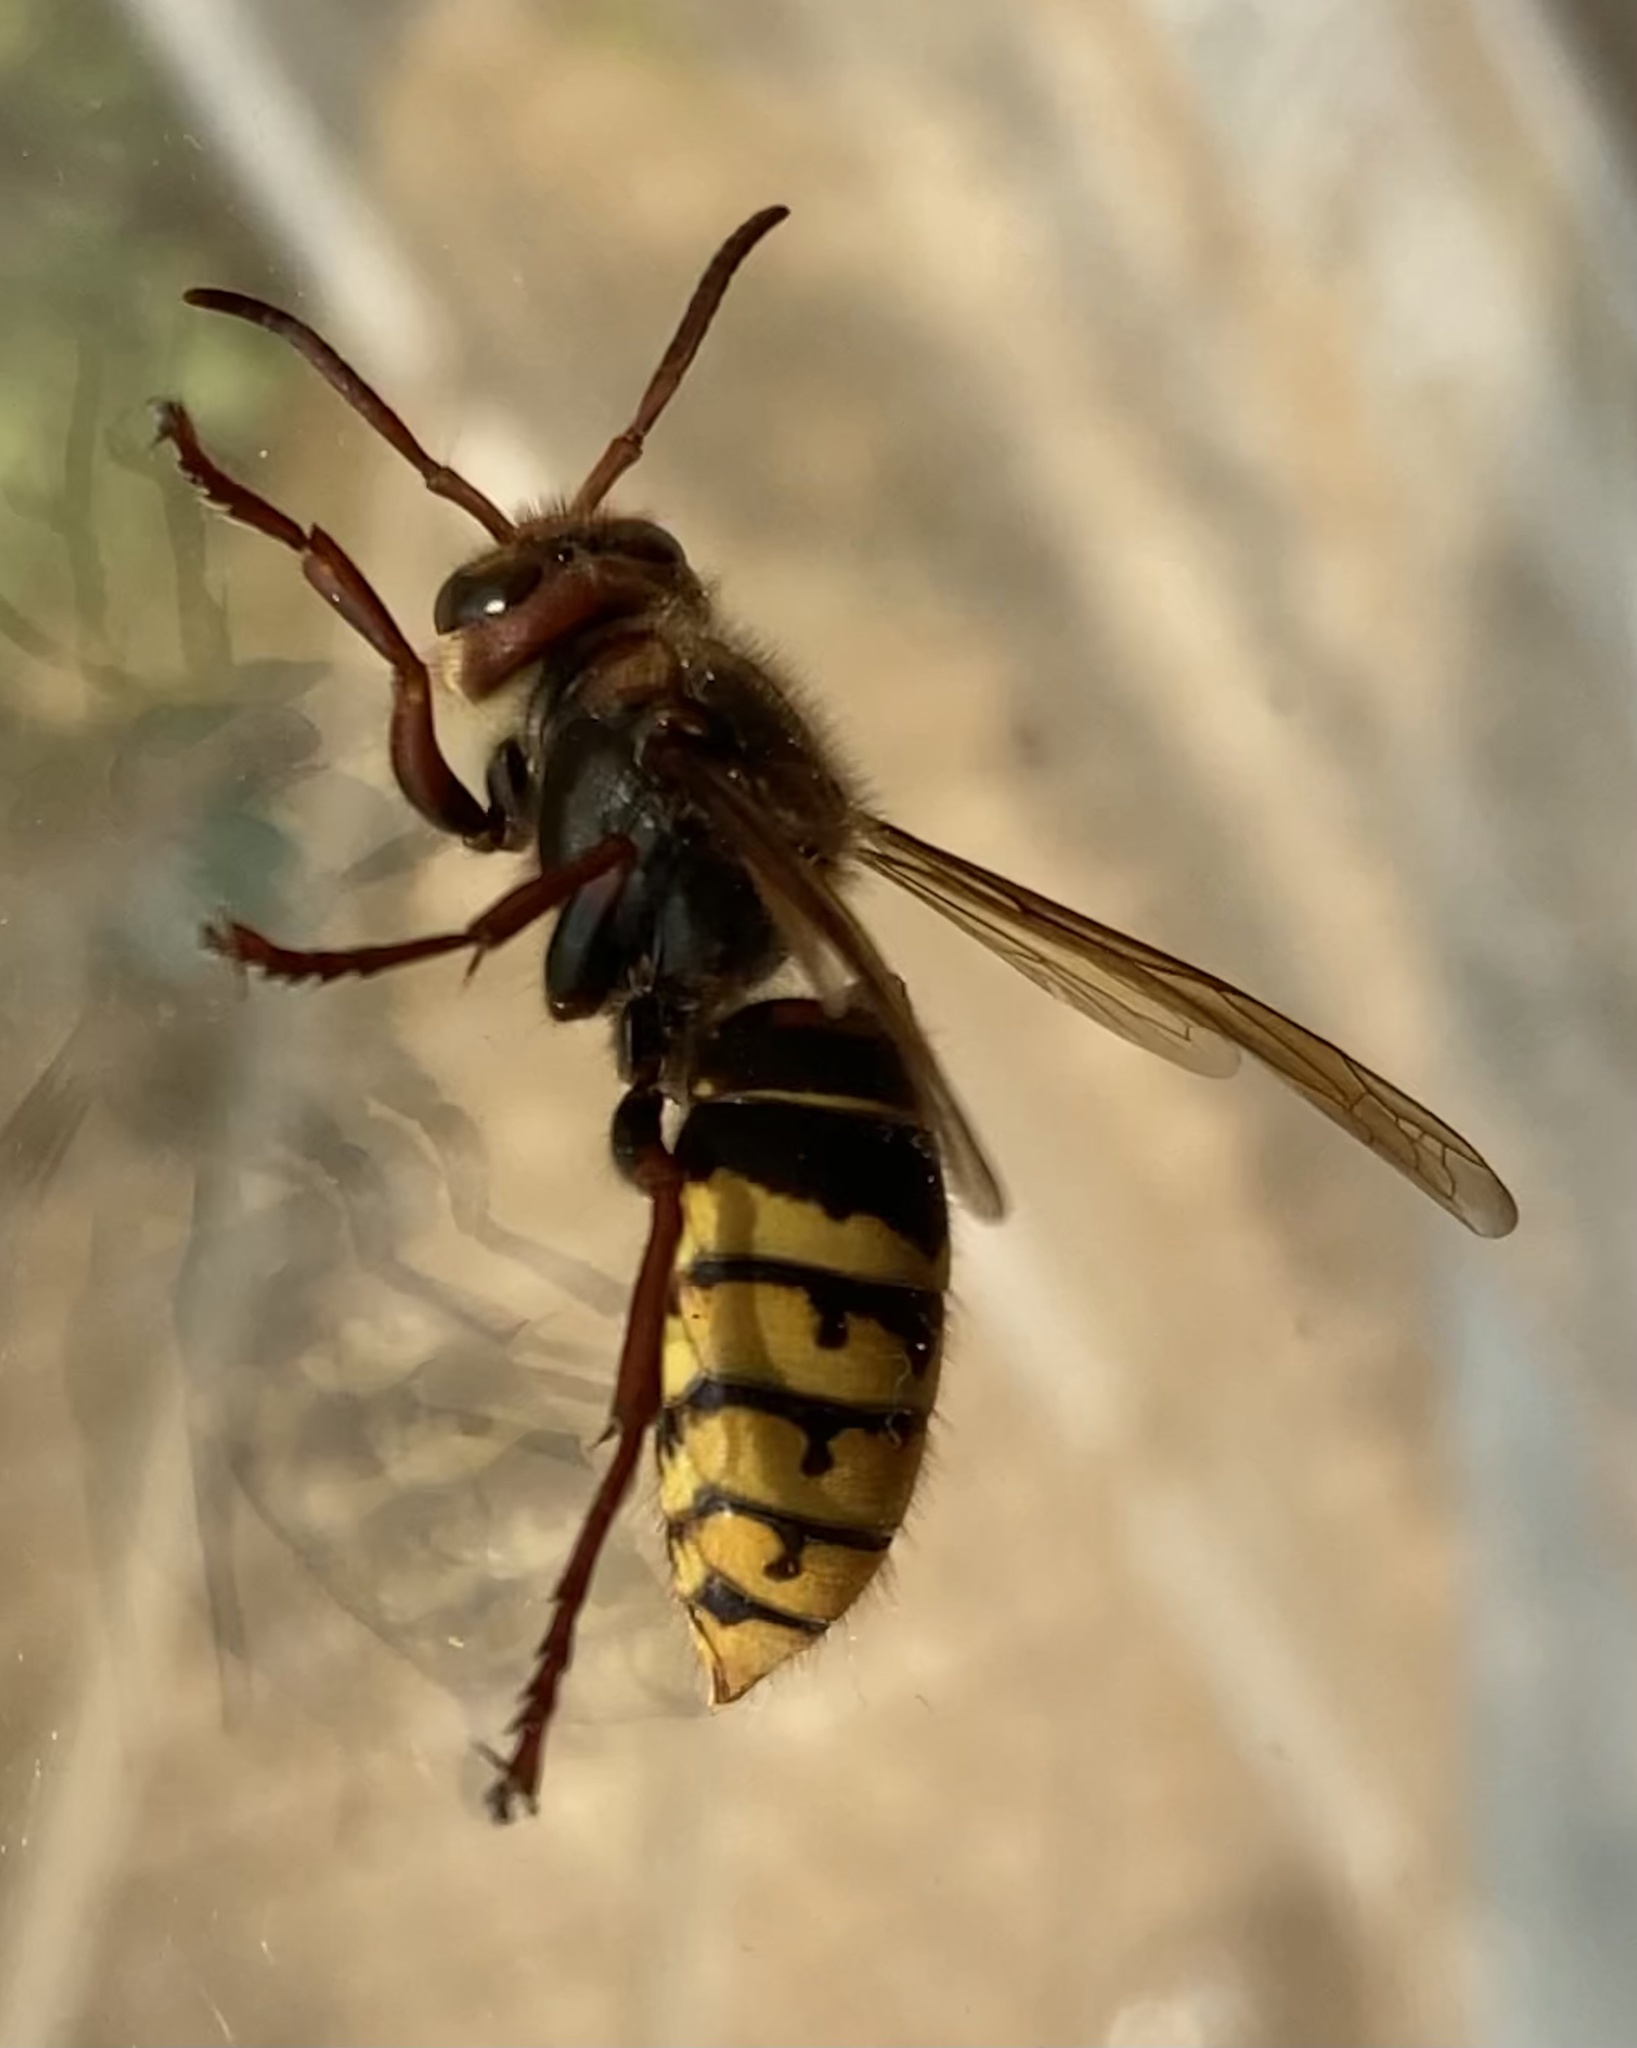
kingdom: Animalia
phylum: Arthropoda
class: Insecta
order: Hymenoptera
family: Vespidae
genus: Vespa
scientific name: Vespa crabro
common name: Hornet
